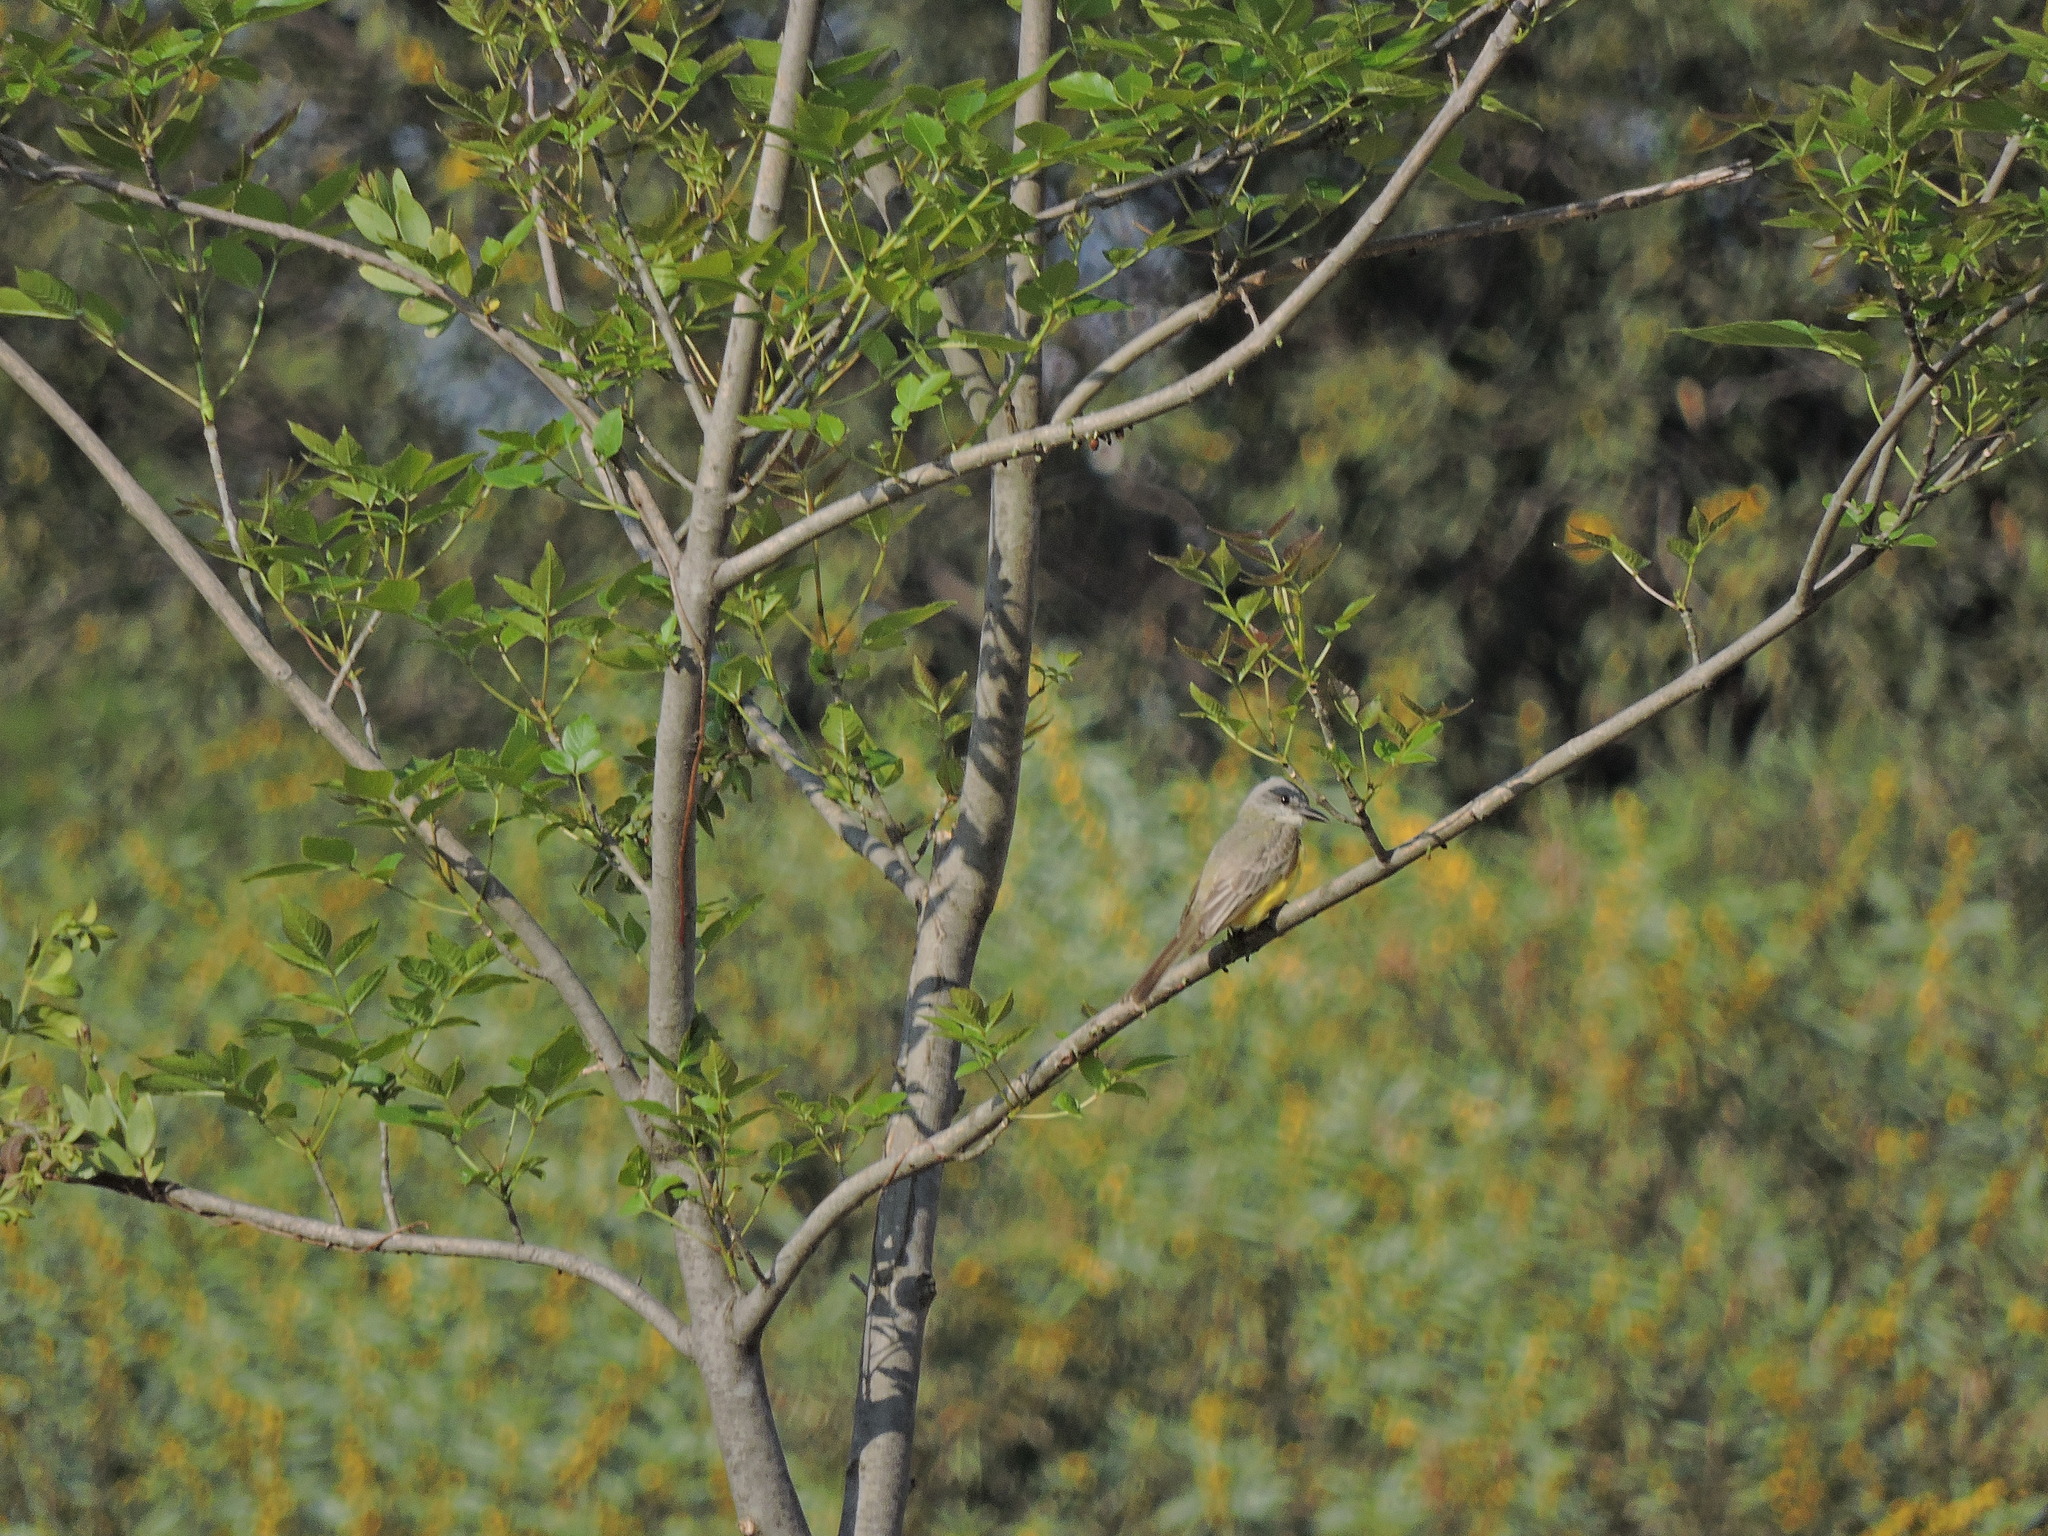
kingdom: Animalia
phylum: Chordata
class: Aves
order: Passeriformes
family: Tyrannidae
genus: Tyrannus
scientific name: Tyrannus vociferans
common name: Cassin's kingbird
